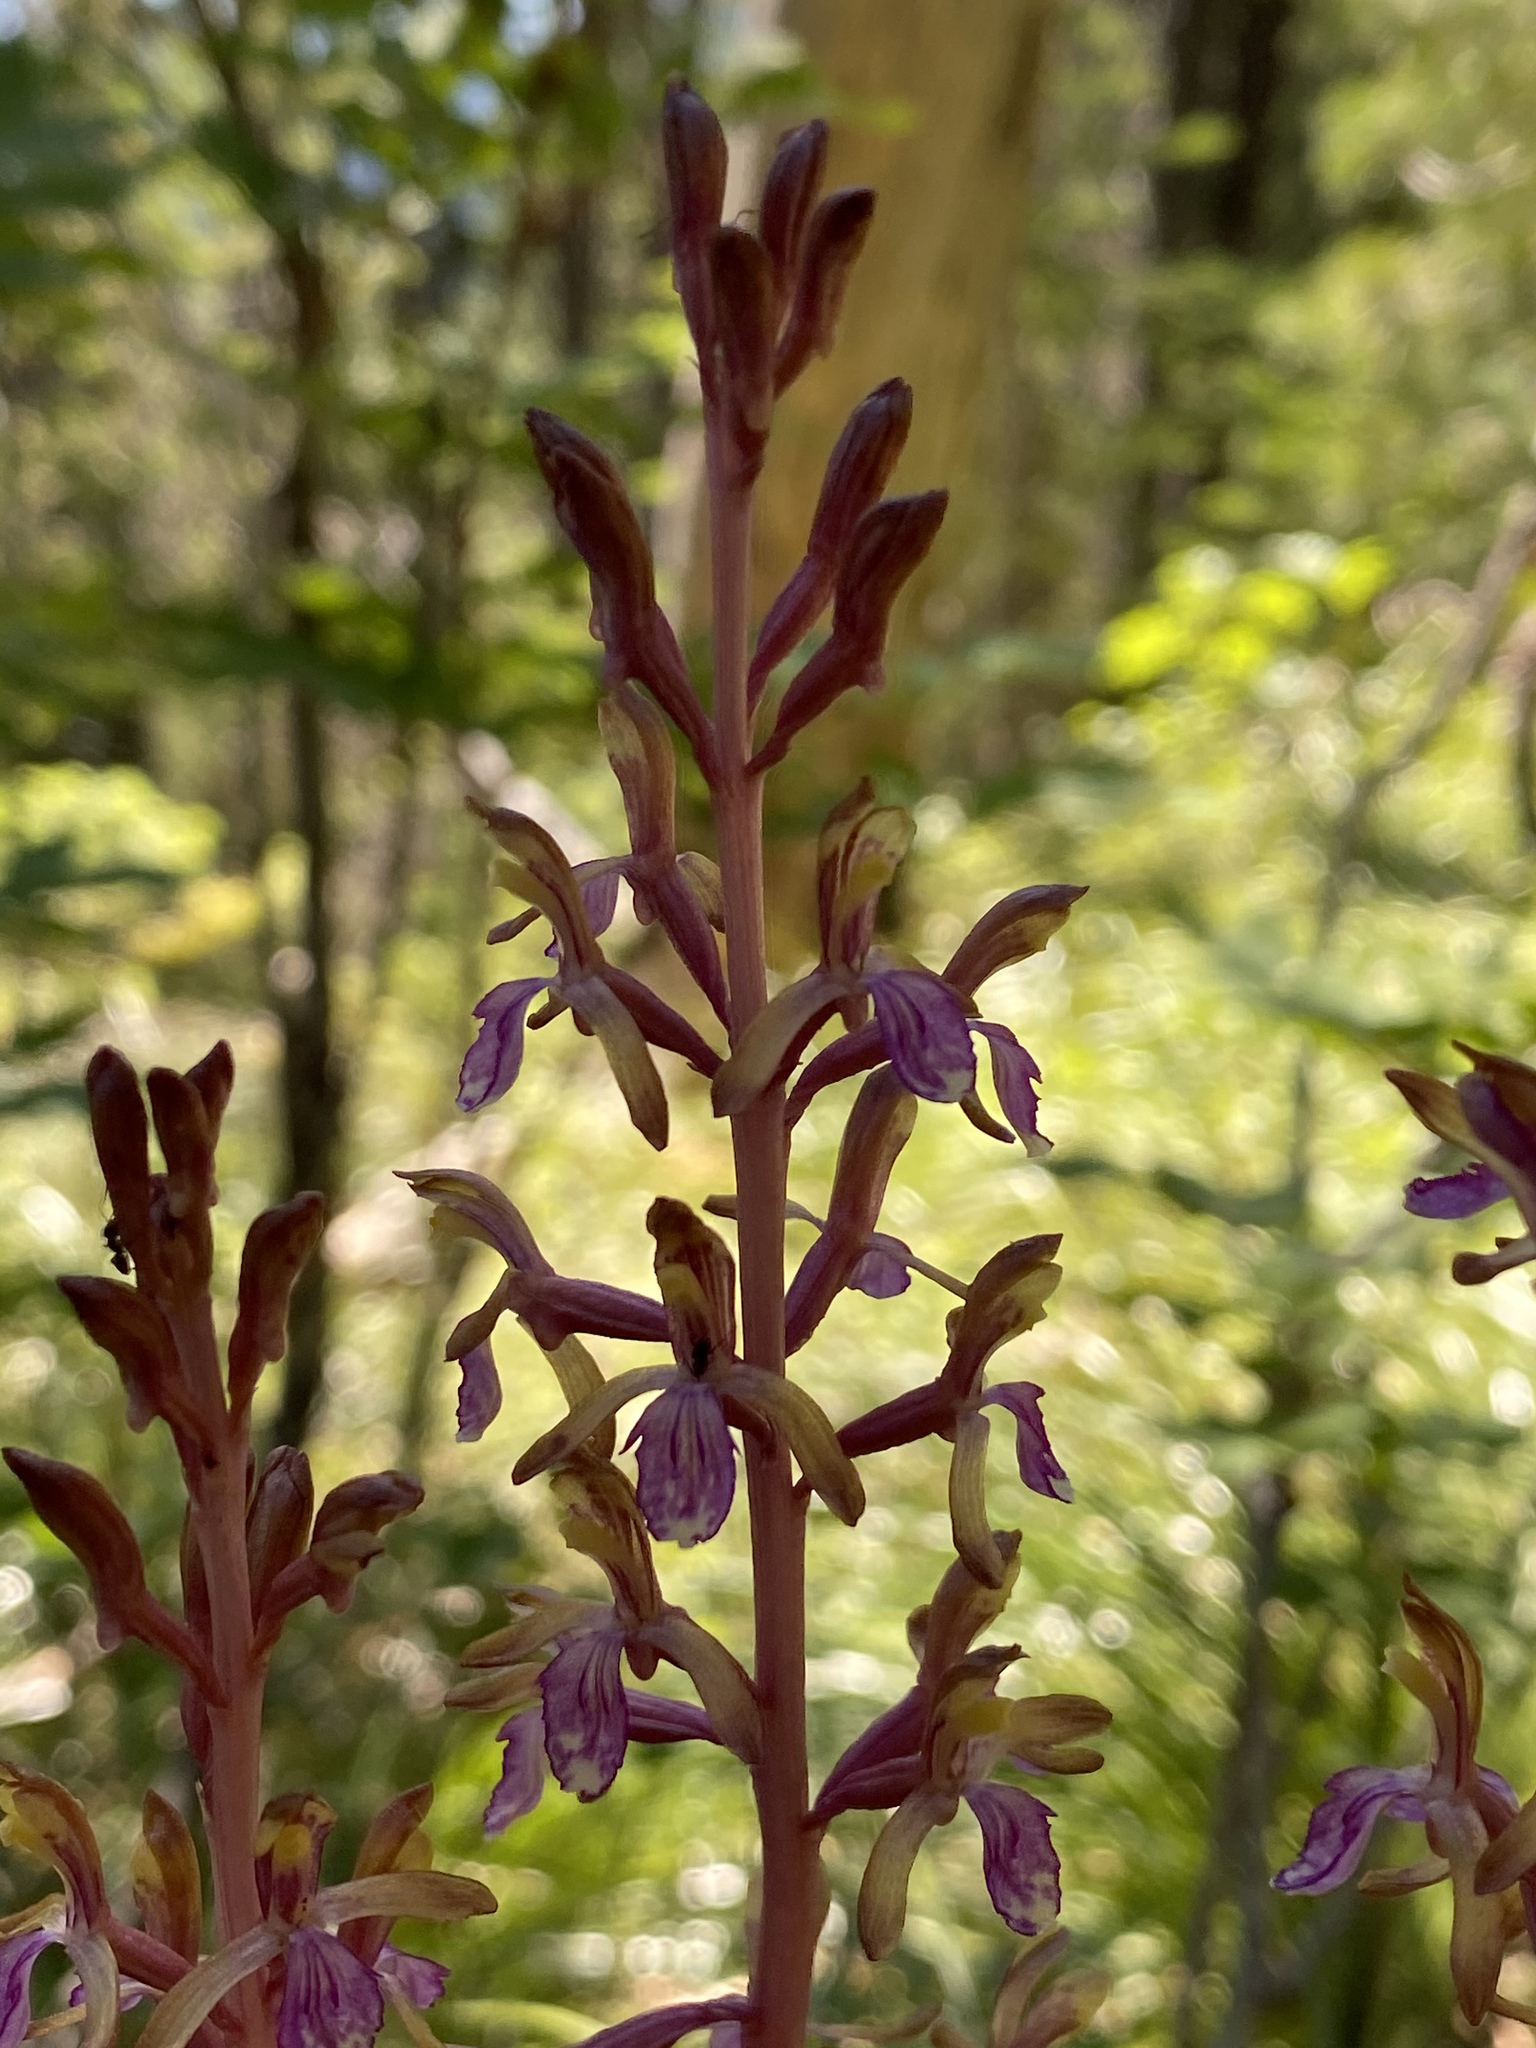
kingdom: Plantae
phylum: Tracheophyta
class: Liliopsida
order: Asparagales
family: Orchidaceae
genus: Corallorhiza
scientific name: Corallorhiza mertensiana
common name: Pacific coralroot
